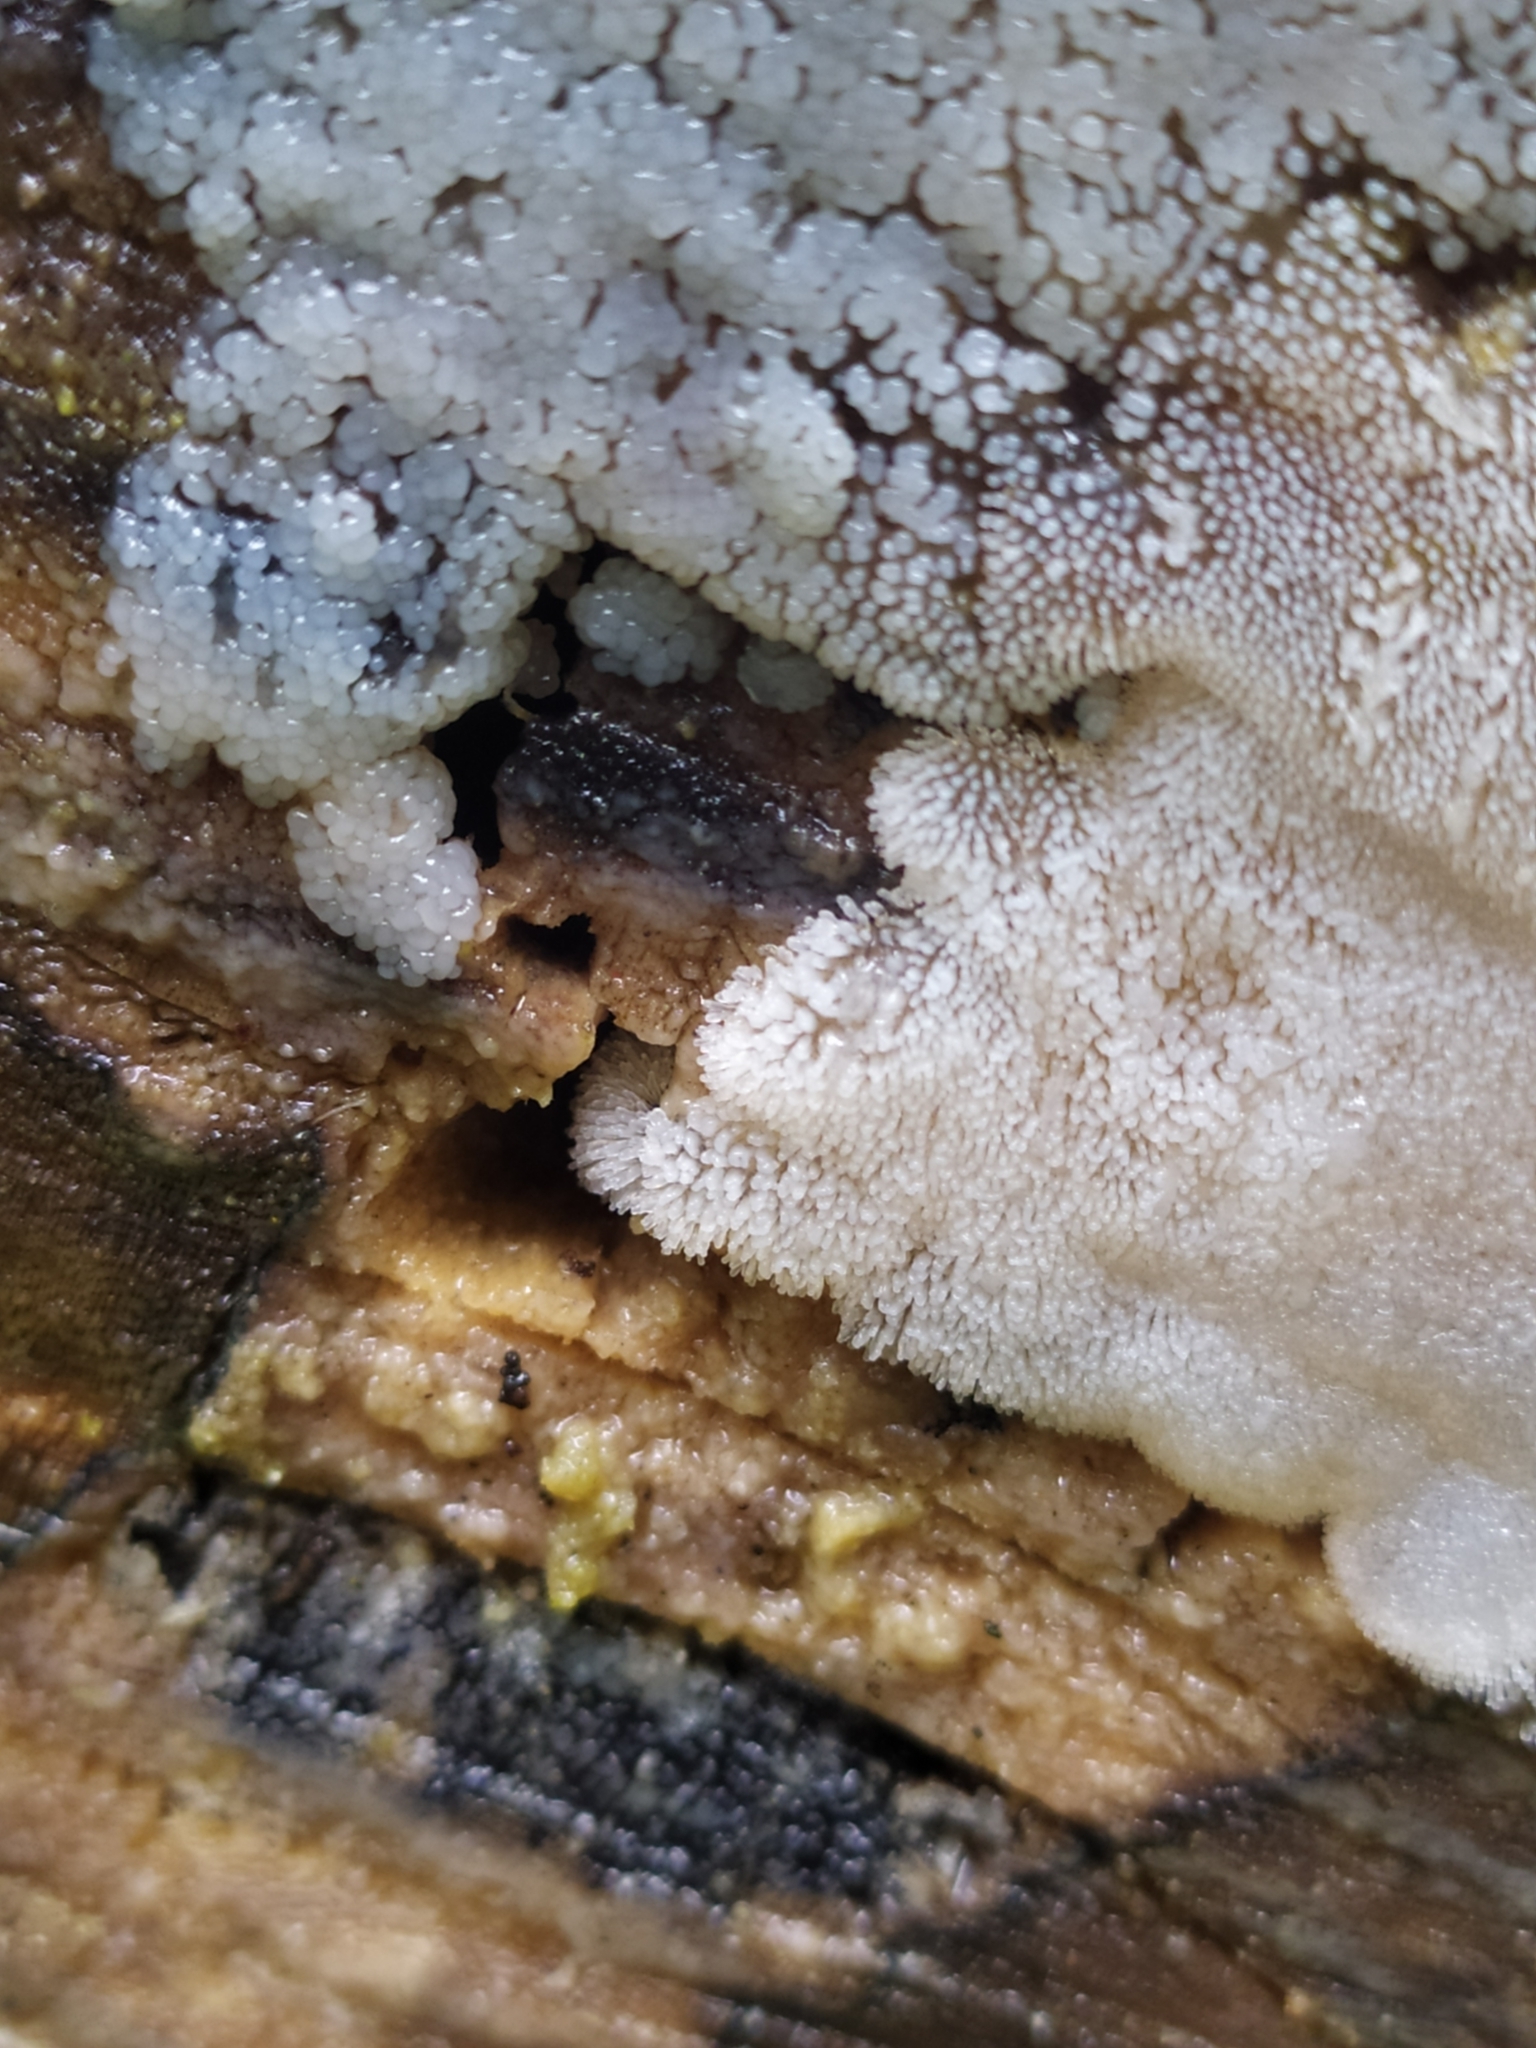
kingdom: Protozoa
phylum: Mycetozoa
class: Protosteliomycetes
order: Ceratiomyxales
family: Ceratiomyxaceae
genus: Ceratiomyxa
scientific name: Ceratiomyxa fruticulosa
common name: Honeycomb coral slime mold
